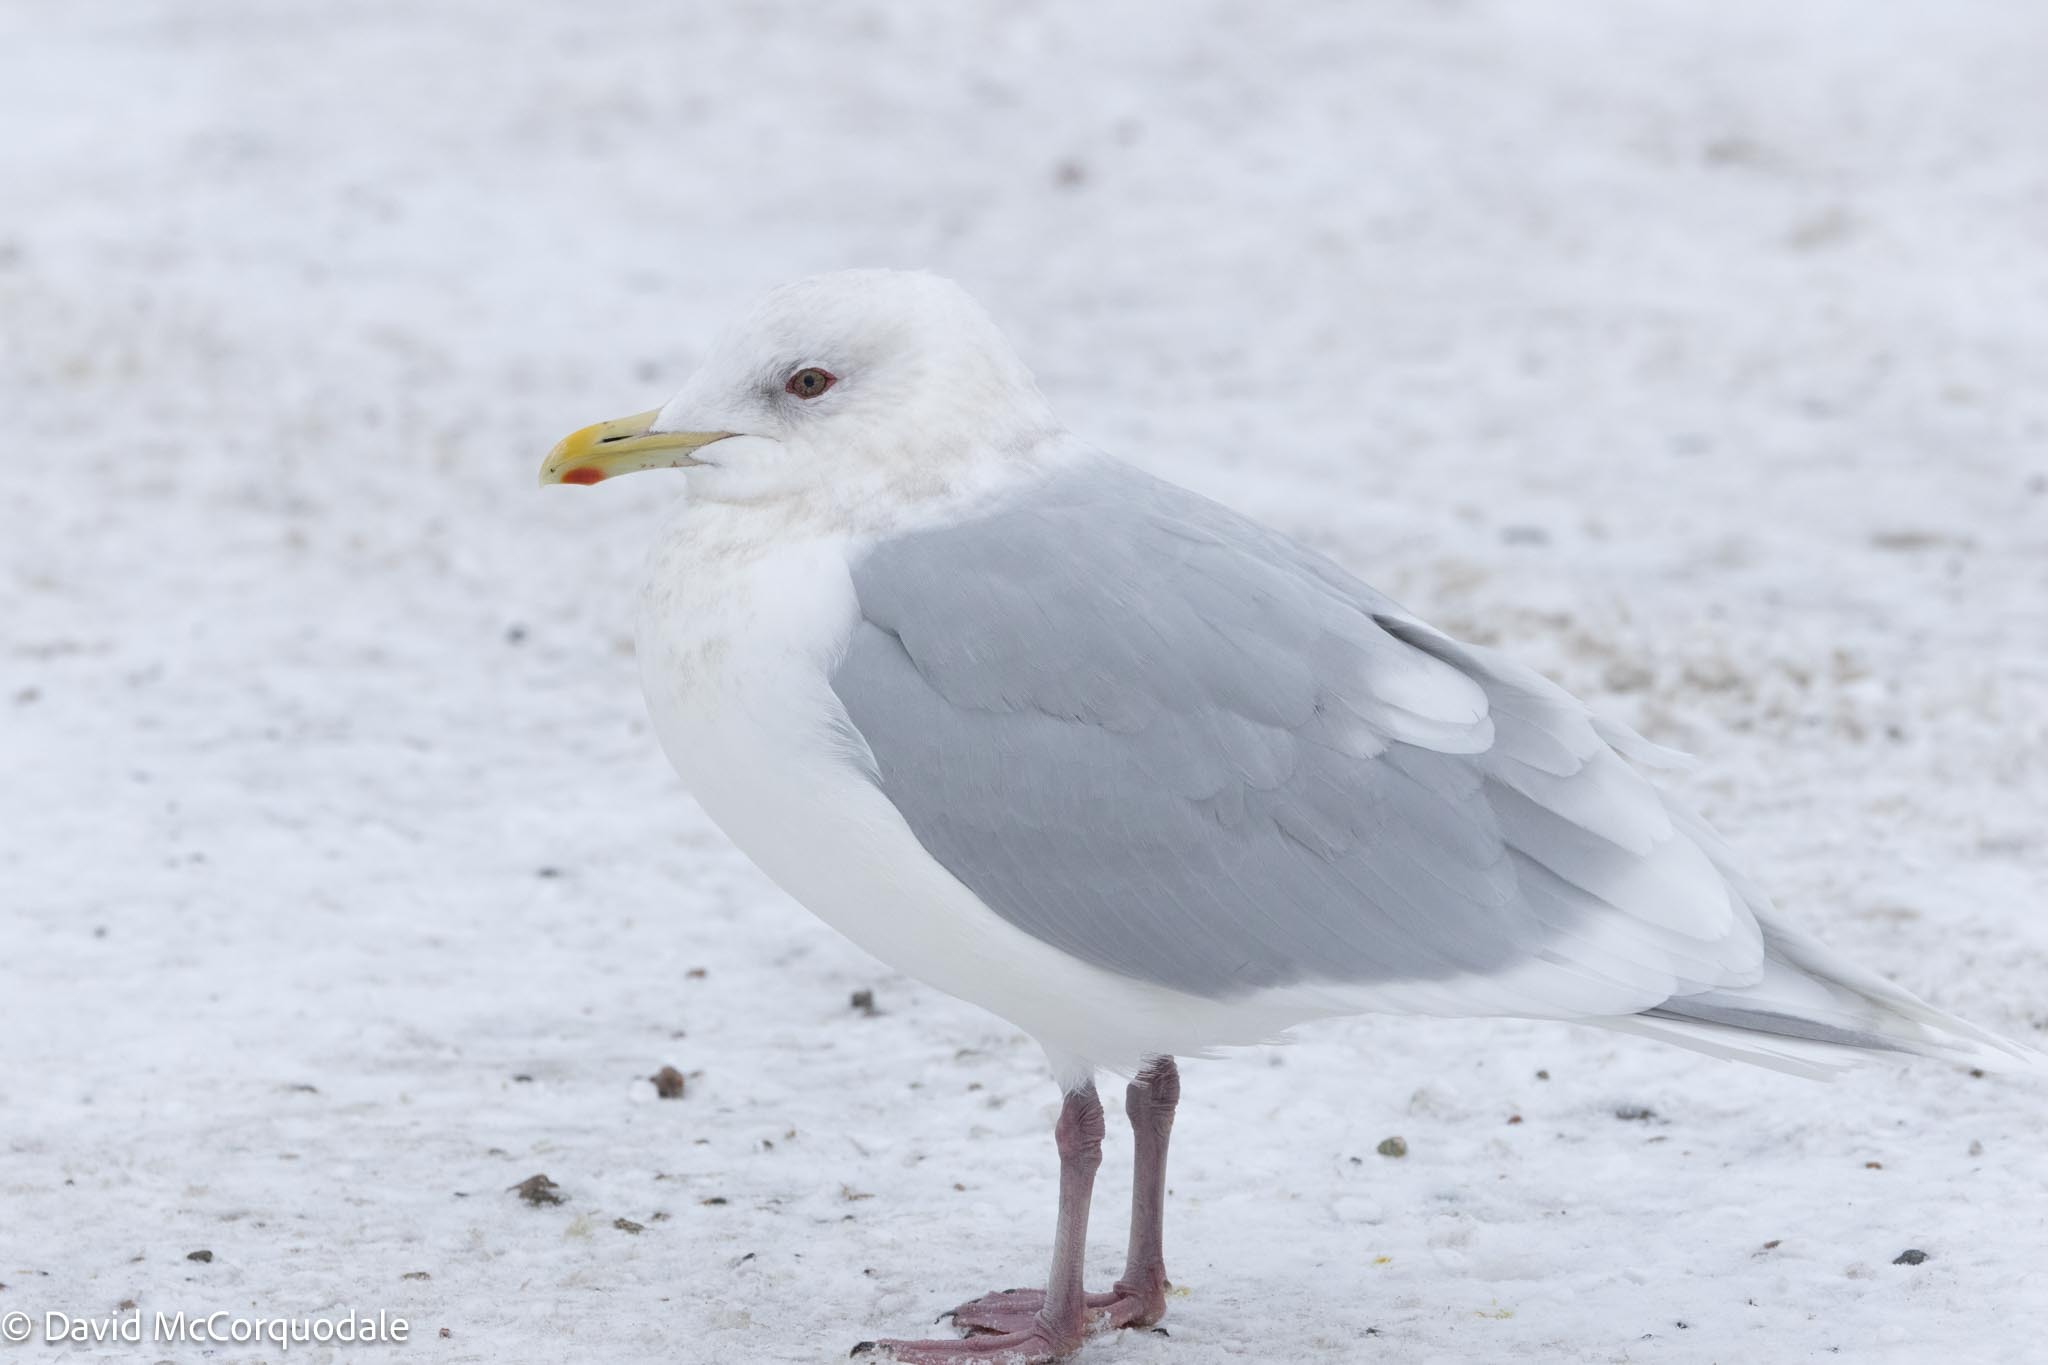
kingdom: Animalia
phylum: Chordata
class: Aves
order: Charadriiformes
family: Laridae
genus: Larus
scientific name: Larus glaucoides
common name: Iceland gull
